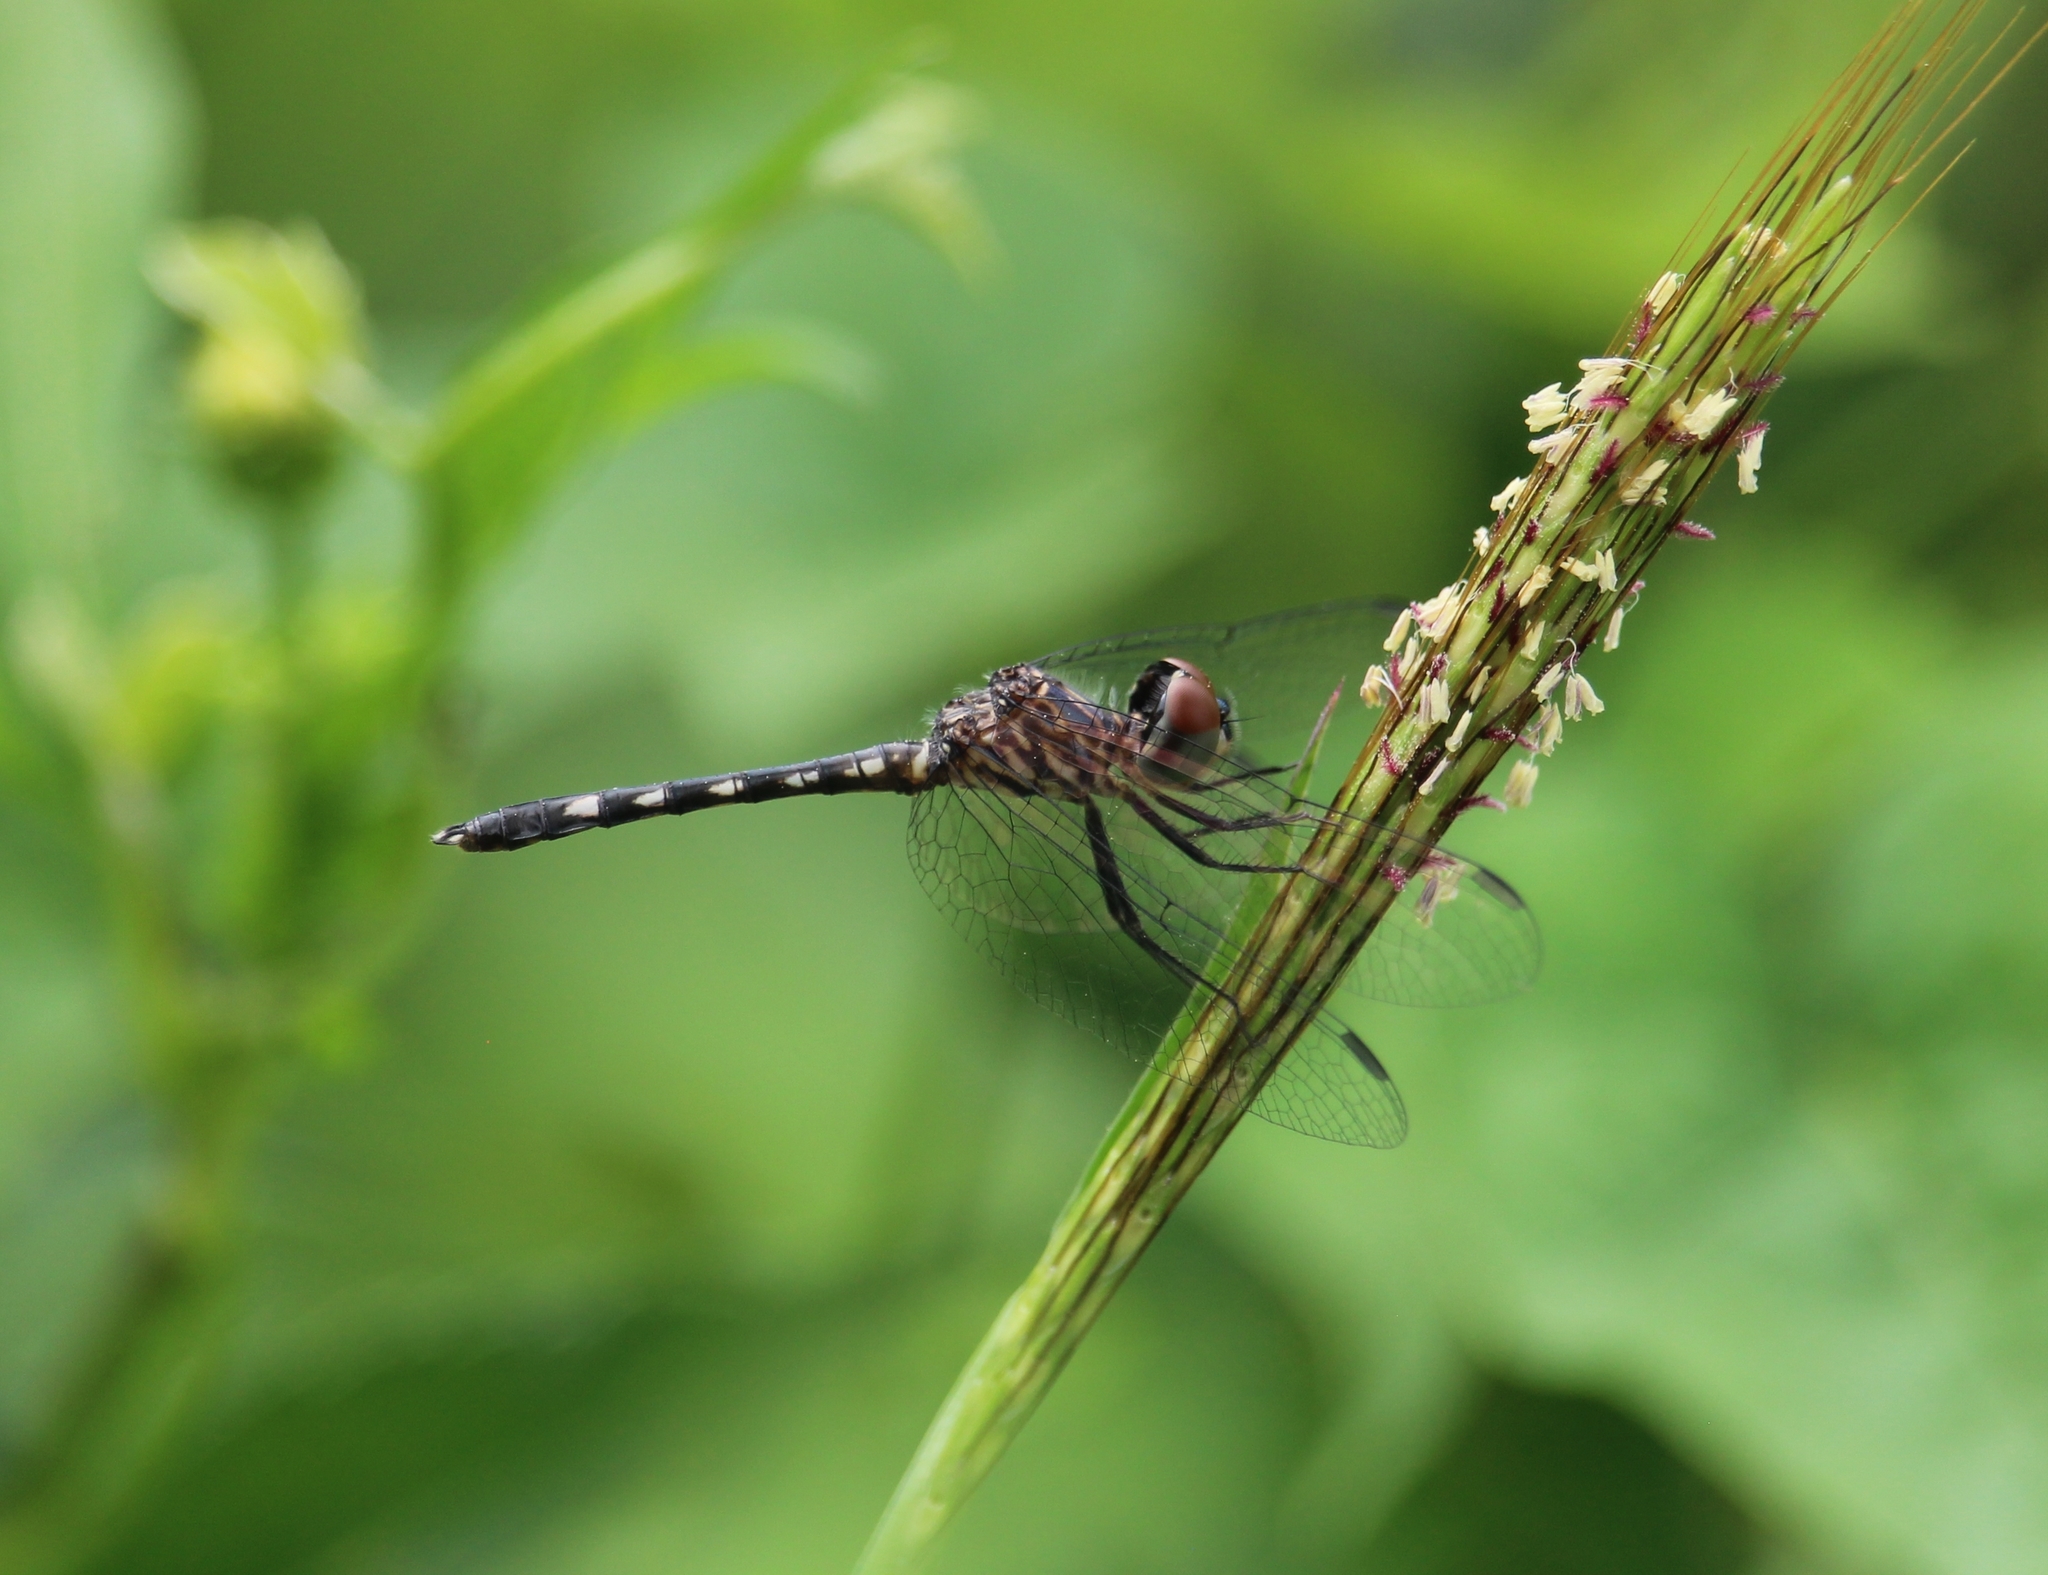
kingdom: Animalia
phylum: Arthropoda
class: Insecta
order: Odonata
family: Libellulidae
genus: Micrathyria
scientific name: Micrathyria debilis
